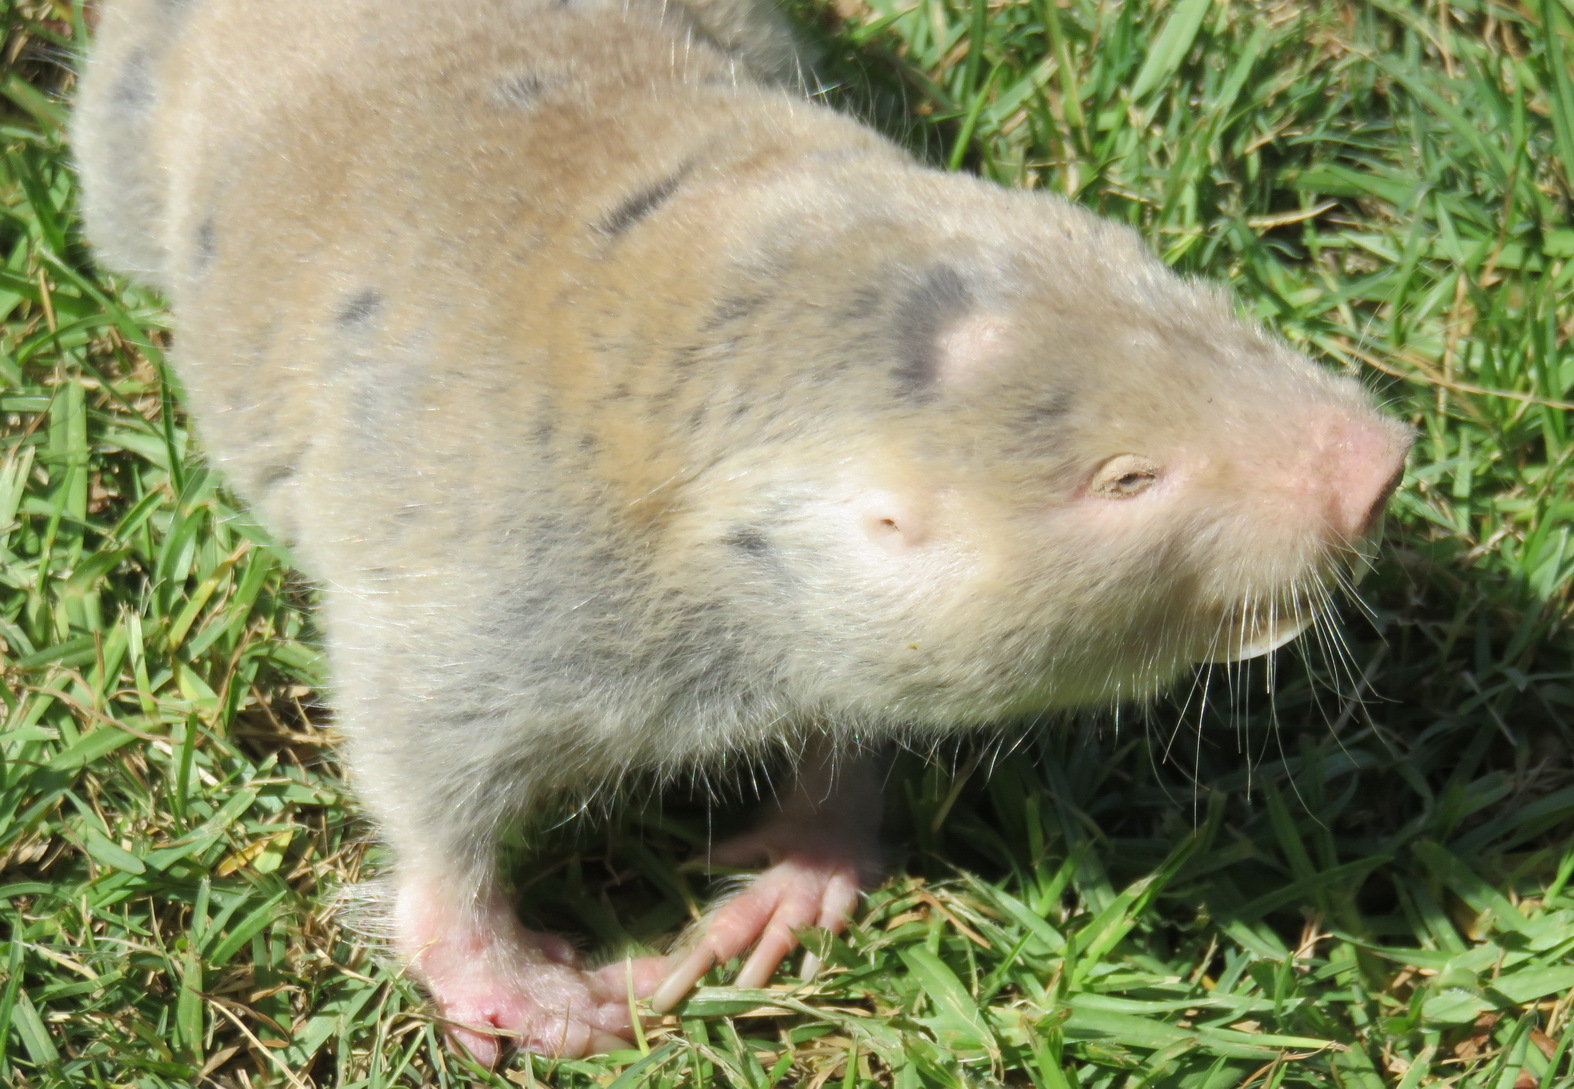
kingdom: Animalia
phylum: Chordata
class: Mammalia
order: Rodentia
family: Bathyergidae
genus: Bathyergus
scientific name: Bathyergus suillus
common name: Cape dune mole rat
